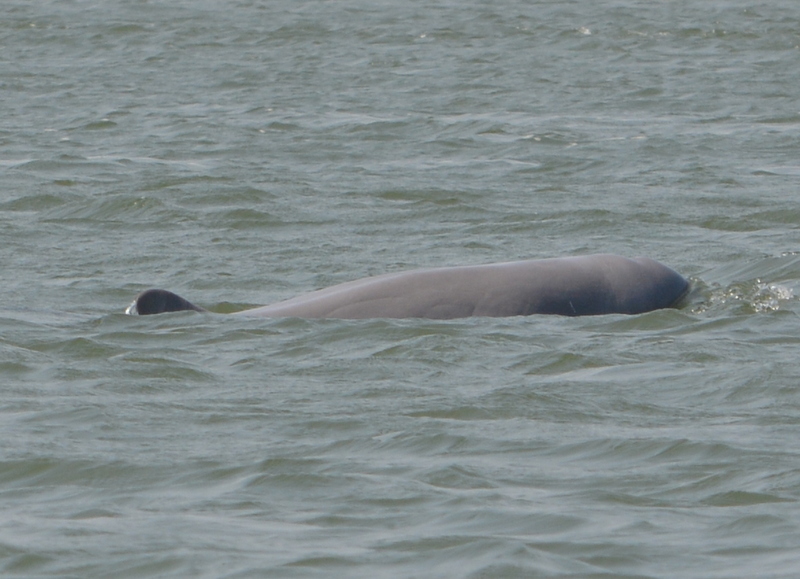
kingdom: Animalia
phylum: Chordata
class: Mammalia
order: Cetacea
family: Delphinidae
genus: Orcaella
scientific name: Orcaella brevirostris
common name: Irrawaddy dolphin
